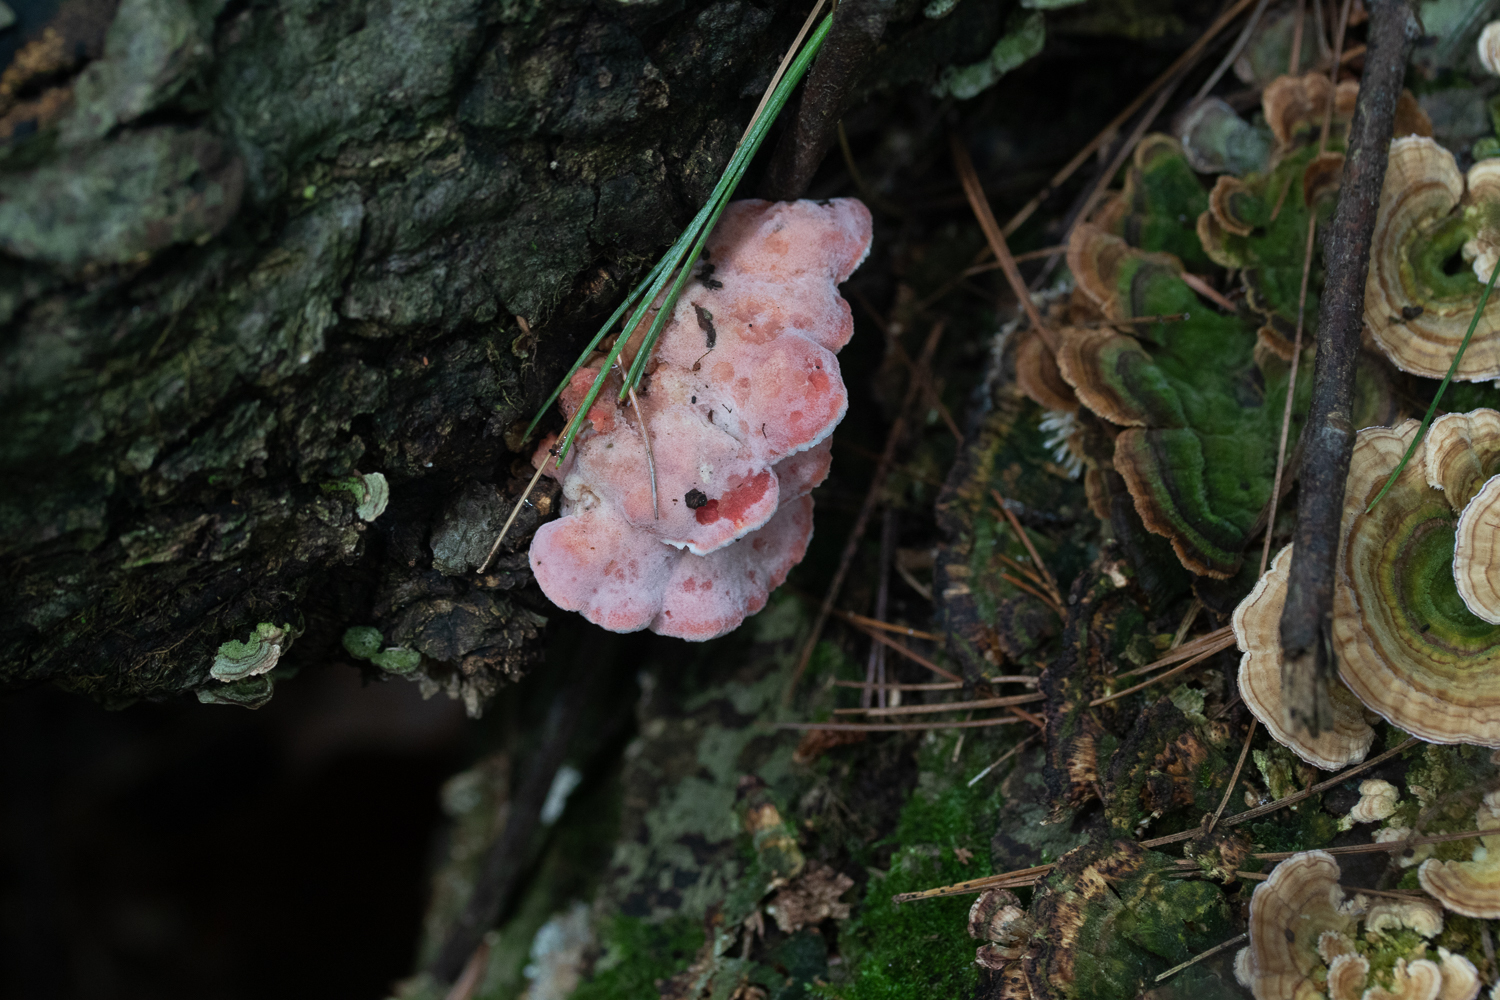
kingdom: Fungi
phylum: Basidiomycota
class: Agaricomycetes
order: Polyporales
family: Irpicaceae
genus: Byssomerulius
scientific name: Byssomerulius incarnatus
